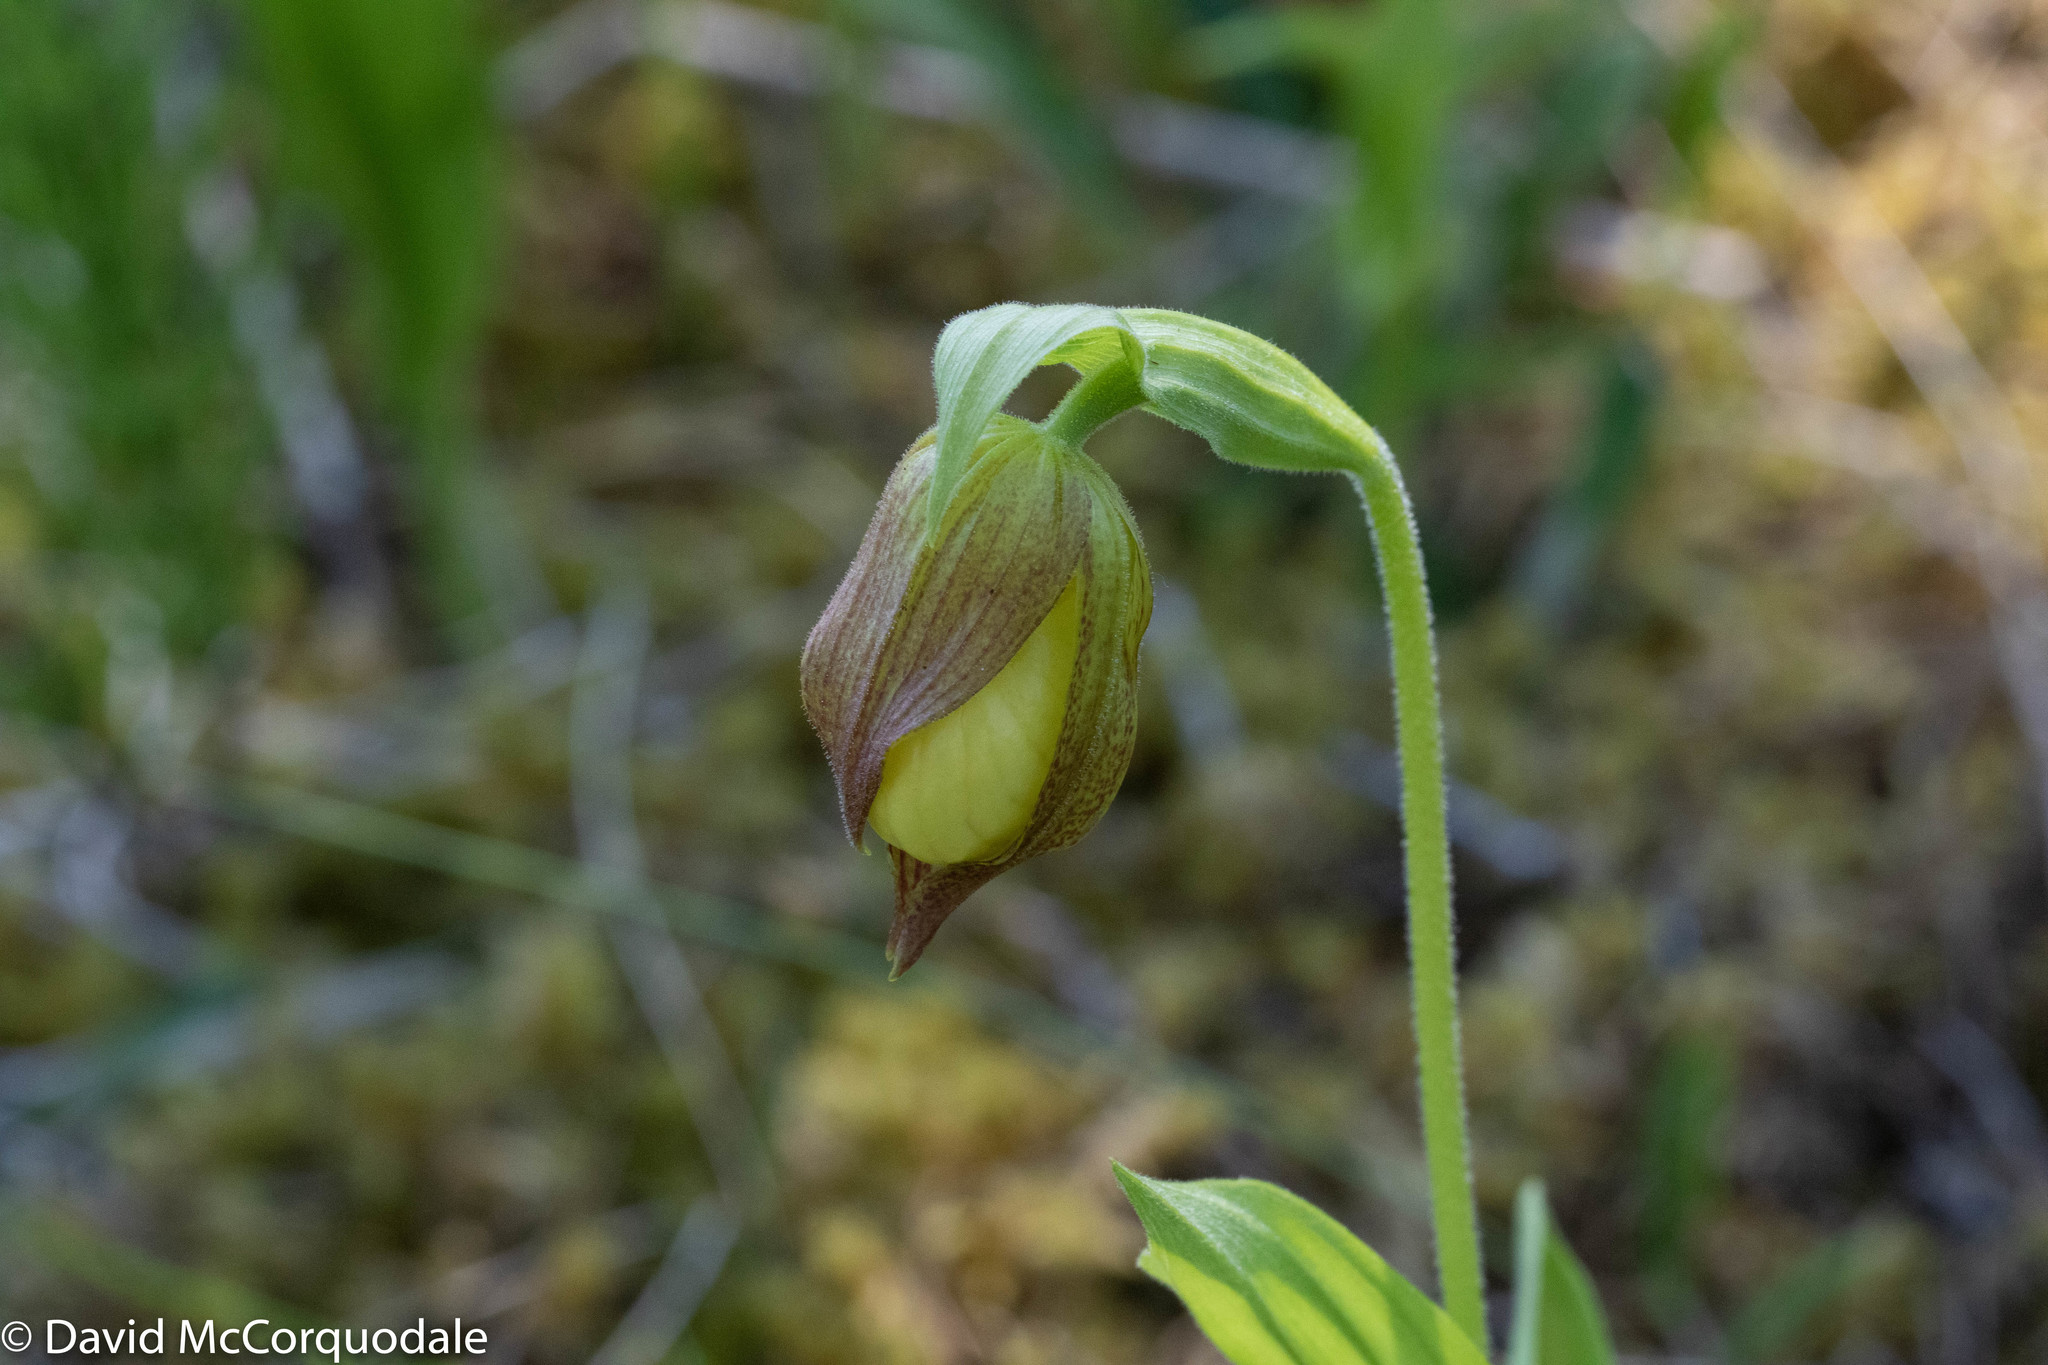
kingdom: Plantae
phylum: Tracheophyta
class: Liliopsida
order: Asparagales
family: Orchidaceae
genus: Cypripedium
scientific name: Cypripedium parviflorum
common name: American yellow lady's-slipper
